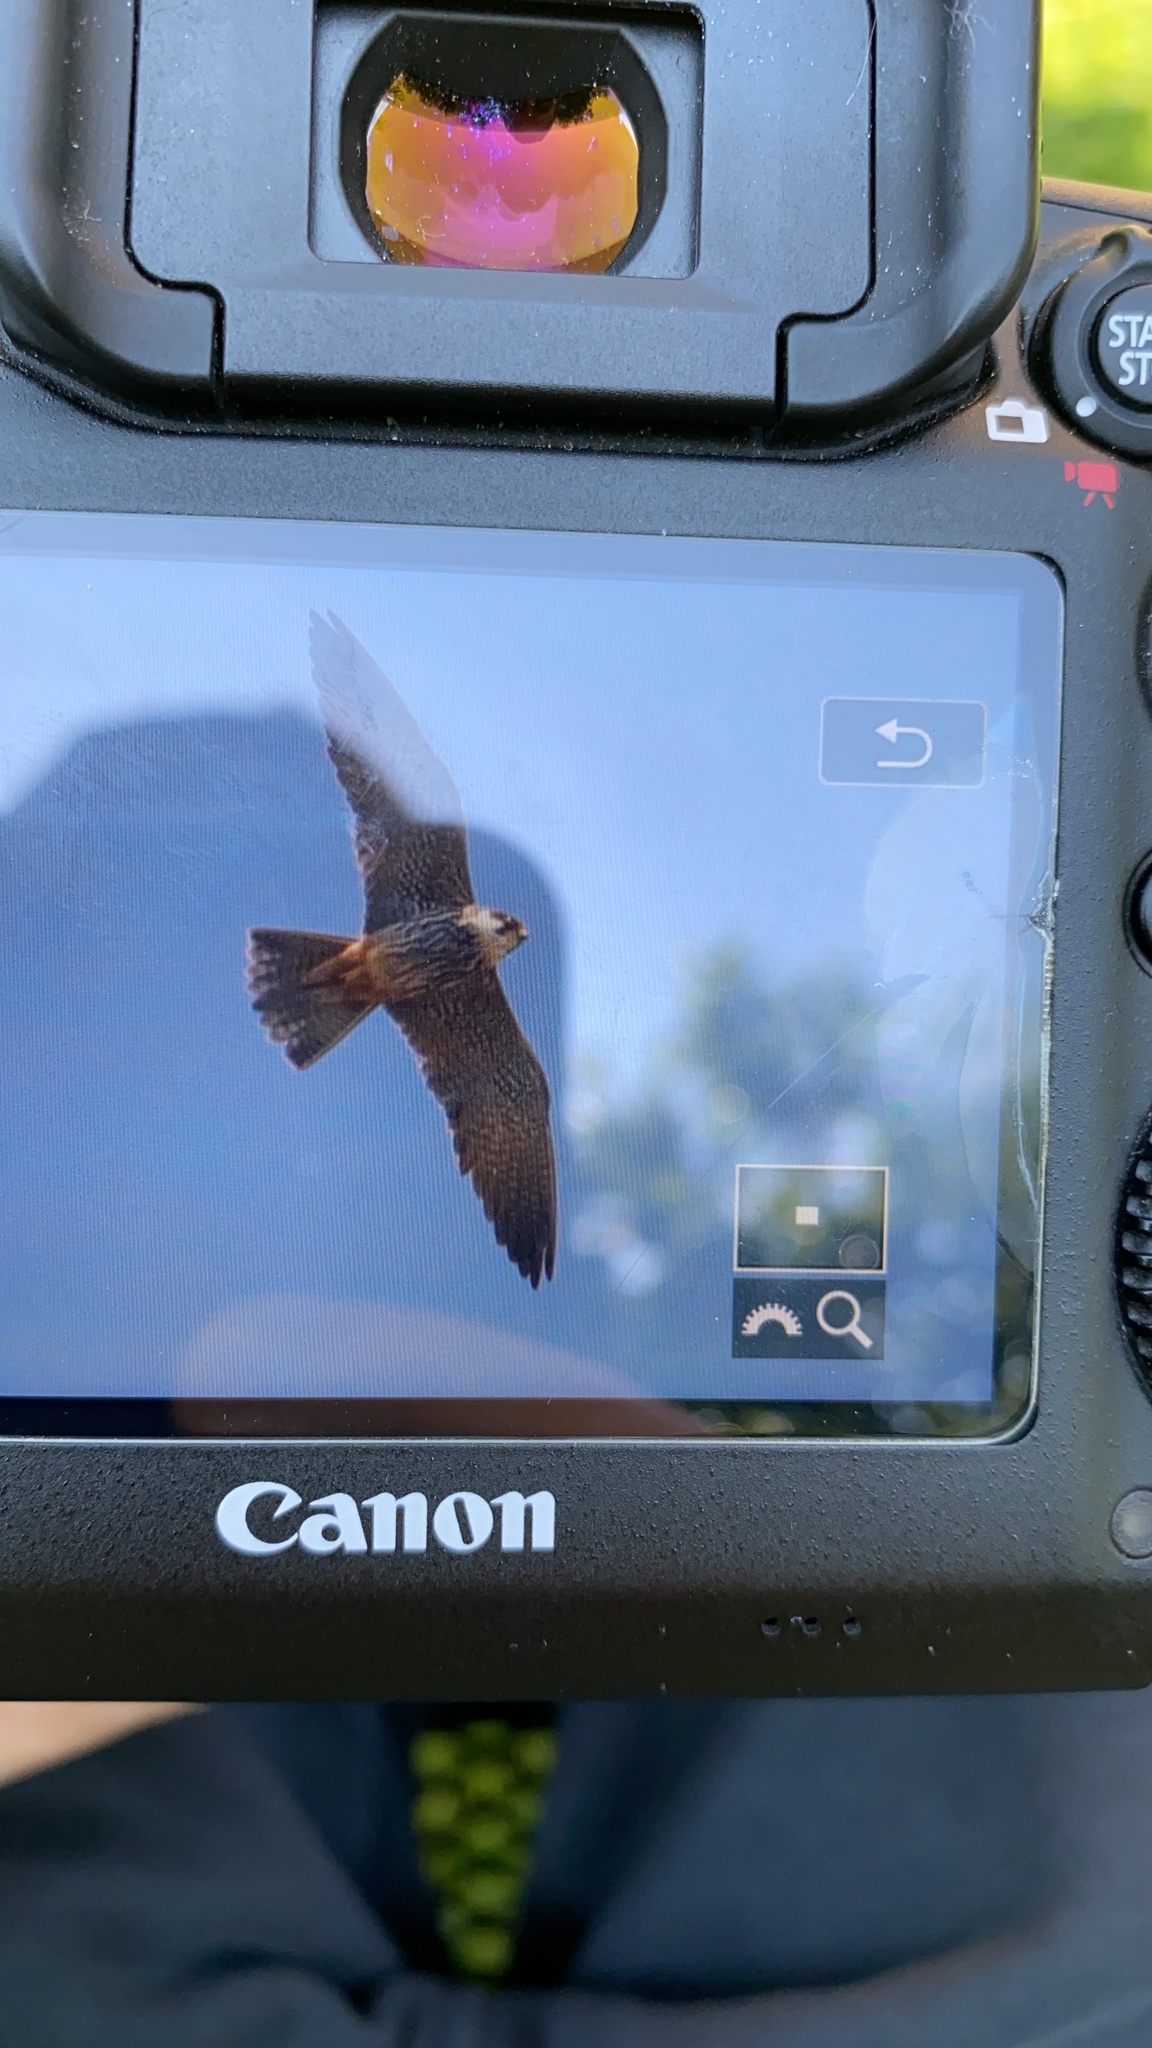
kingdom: Animalia
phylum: Chordata
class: Aves
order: Falconiformes
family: Falconidae
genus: Falco
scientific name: Falco subbuteo
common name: Eurasian hobby
